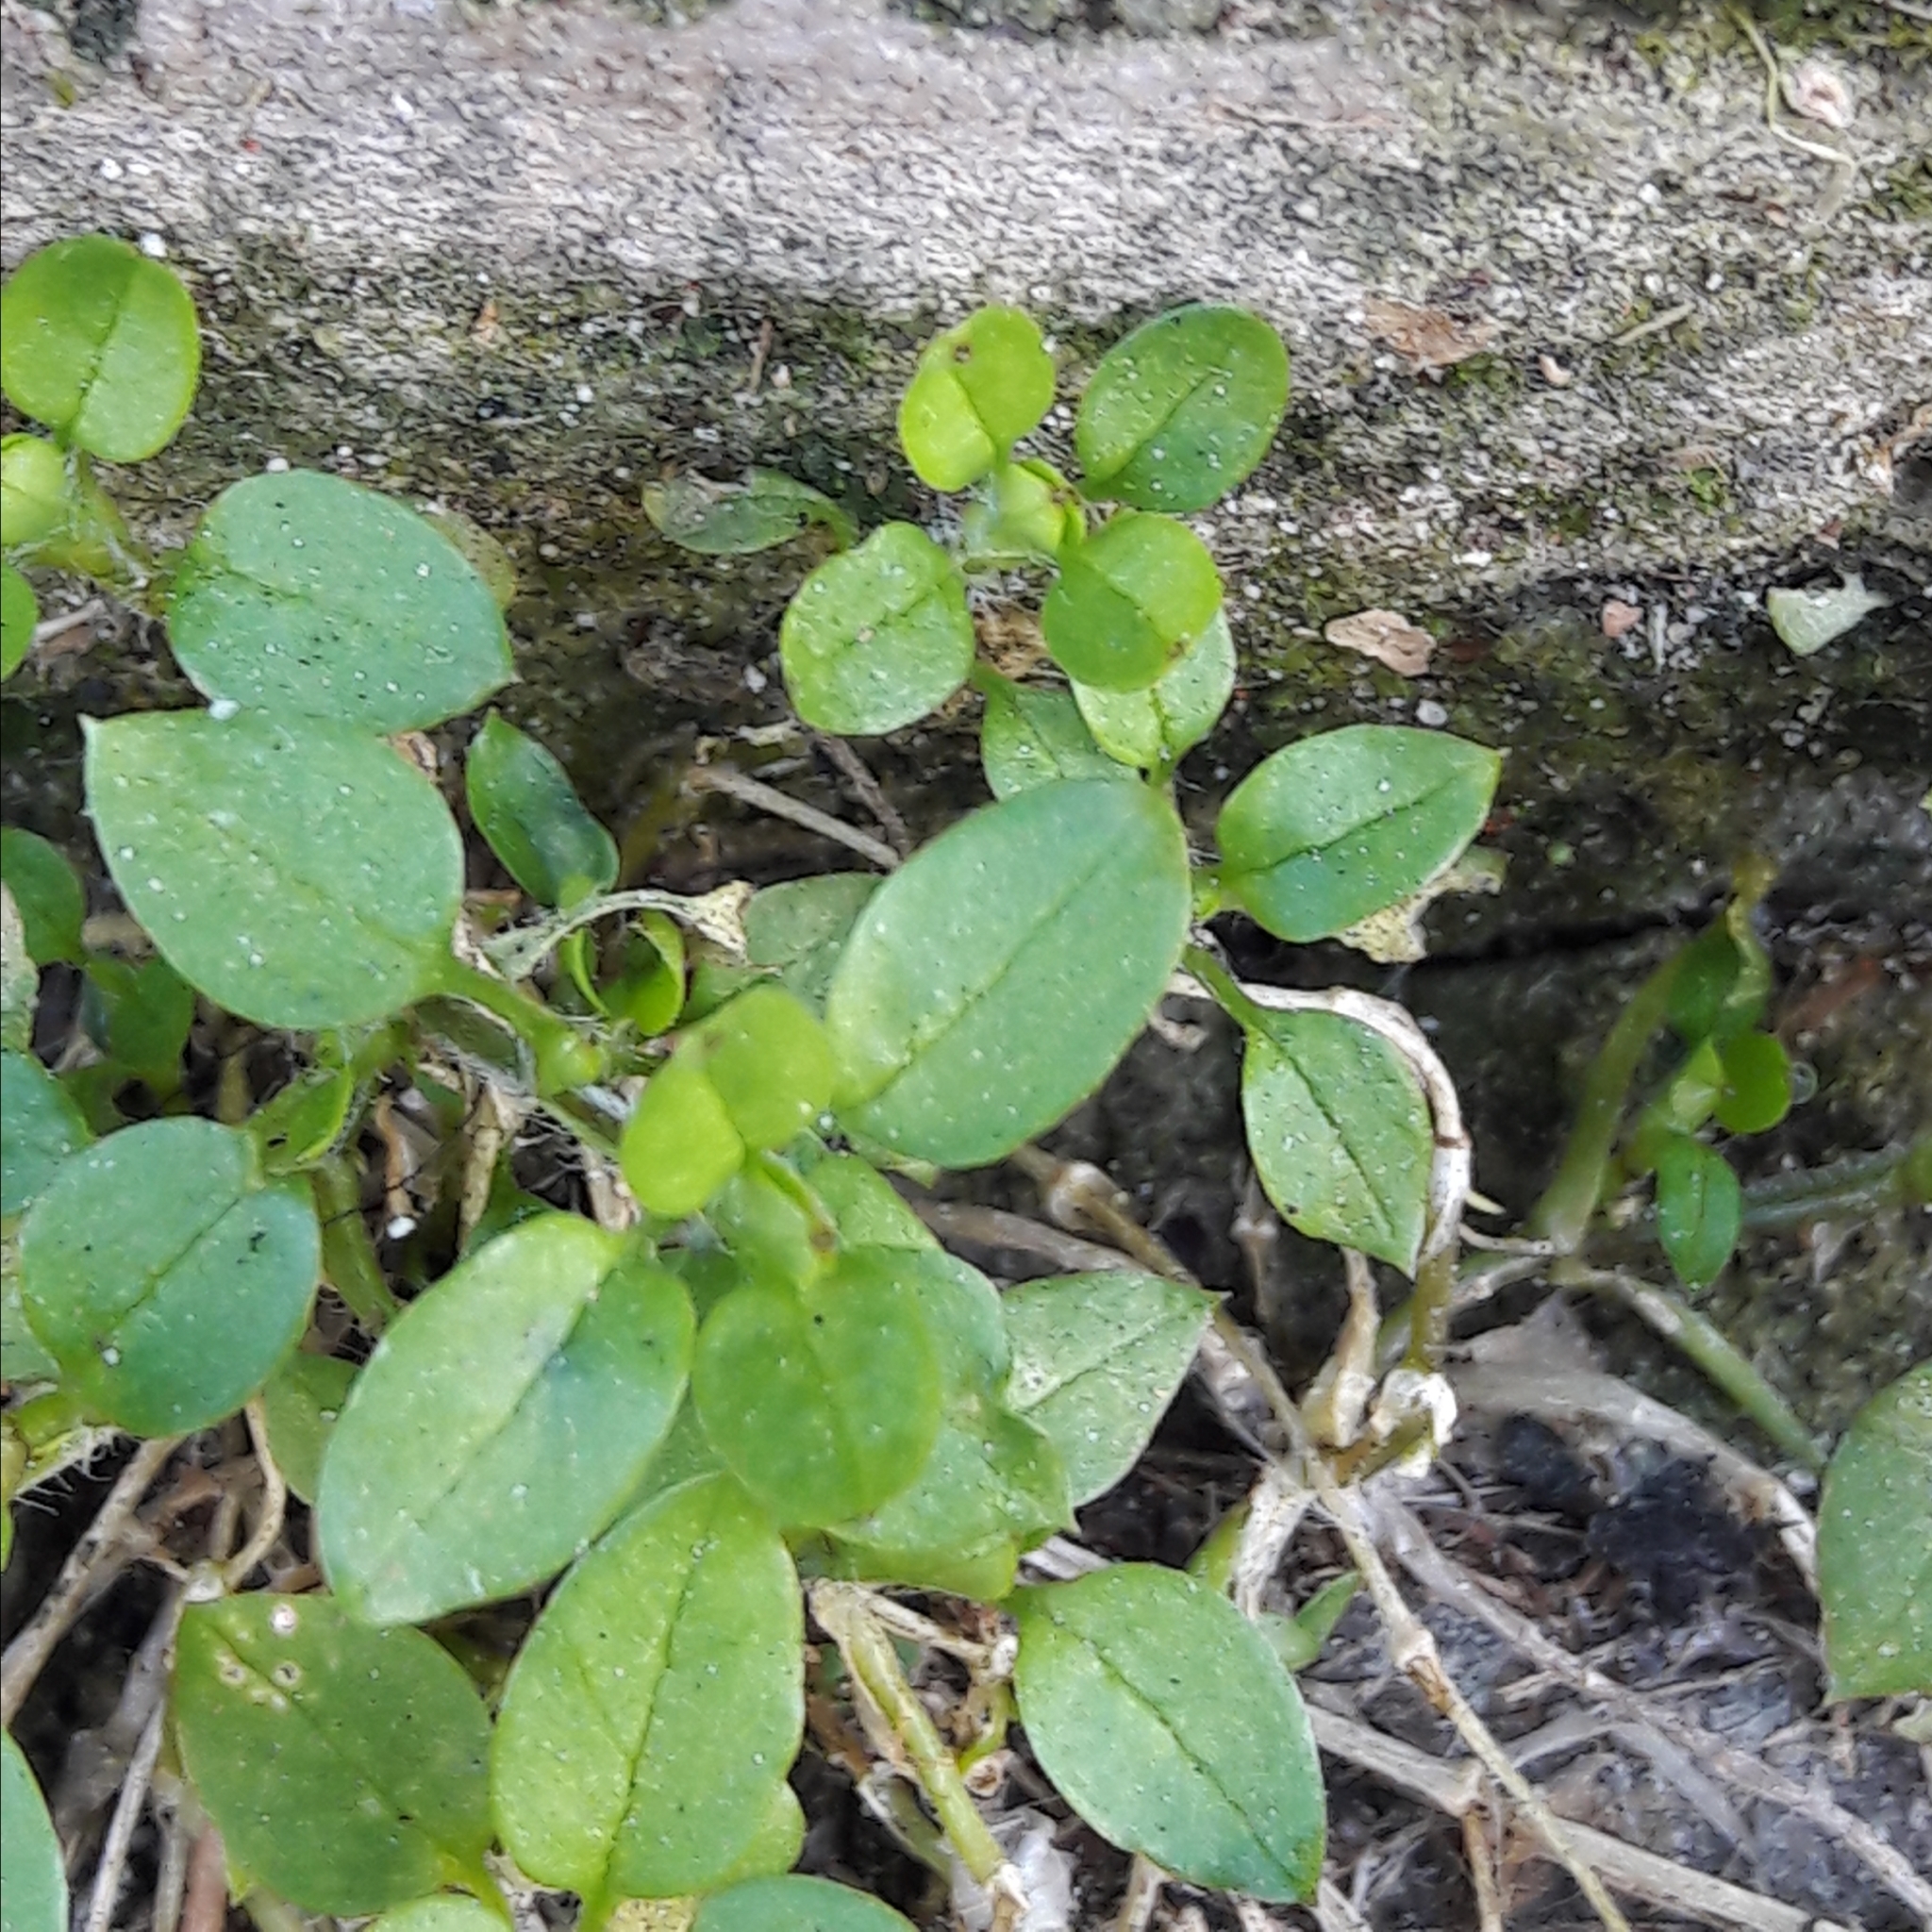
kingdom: Plantae
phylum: Tracheophyta
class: Magnoliopsida
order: Caryophyllales
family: Caryophyllaceae
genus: Stellaria
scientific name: Stellaria media
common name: Common chickweed
